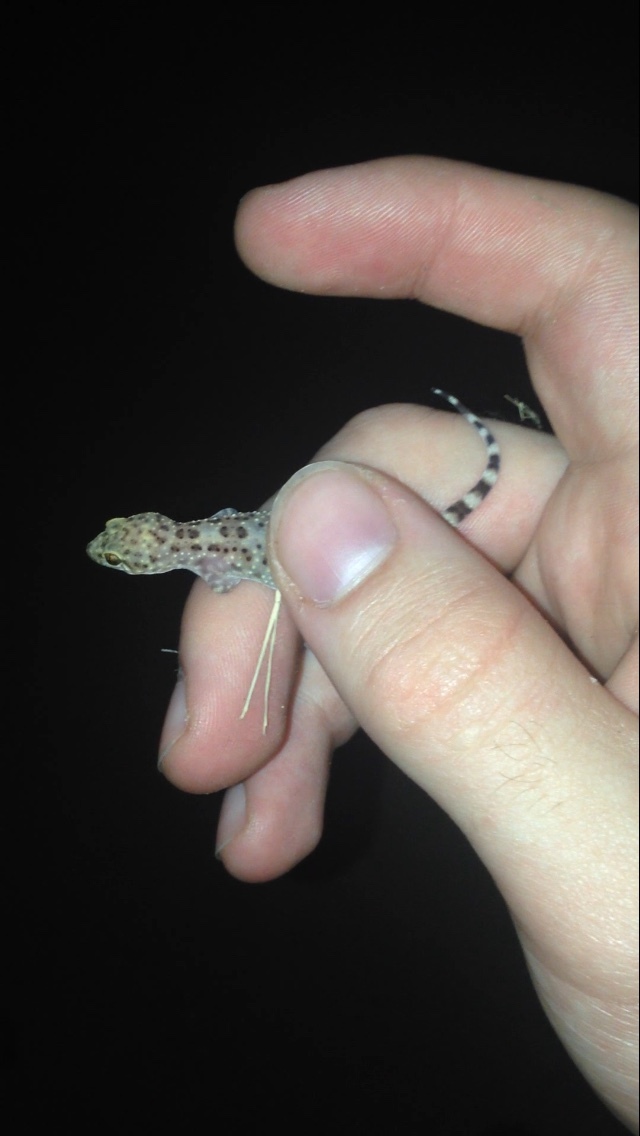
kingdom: Animalia
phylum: Chordata
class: Squamata
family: Gekkonidae
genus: Hemidactylus
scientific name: Hemidactylus turcicus
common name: Turkish gecko
